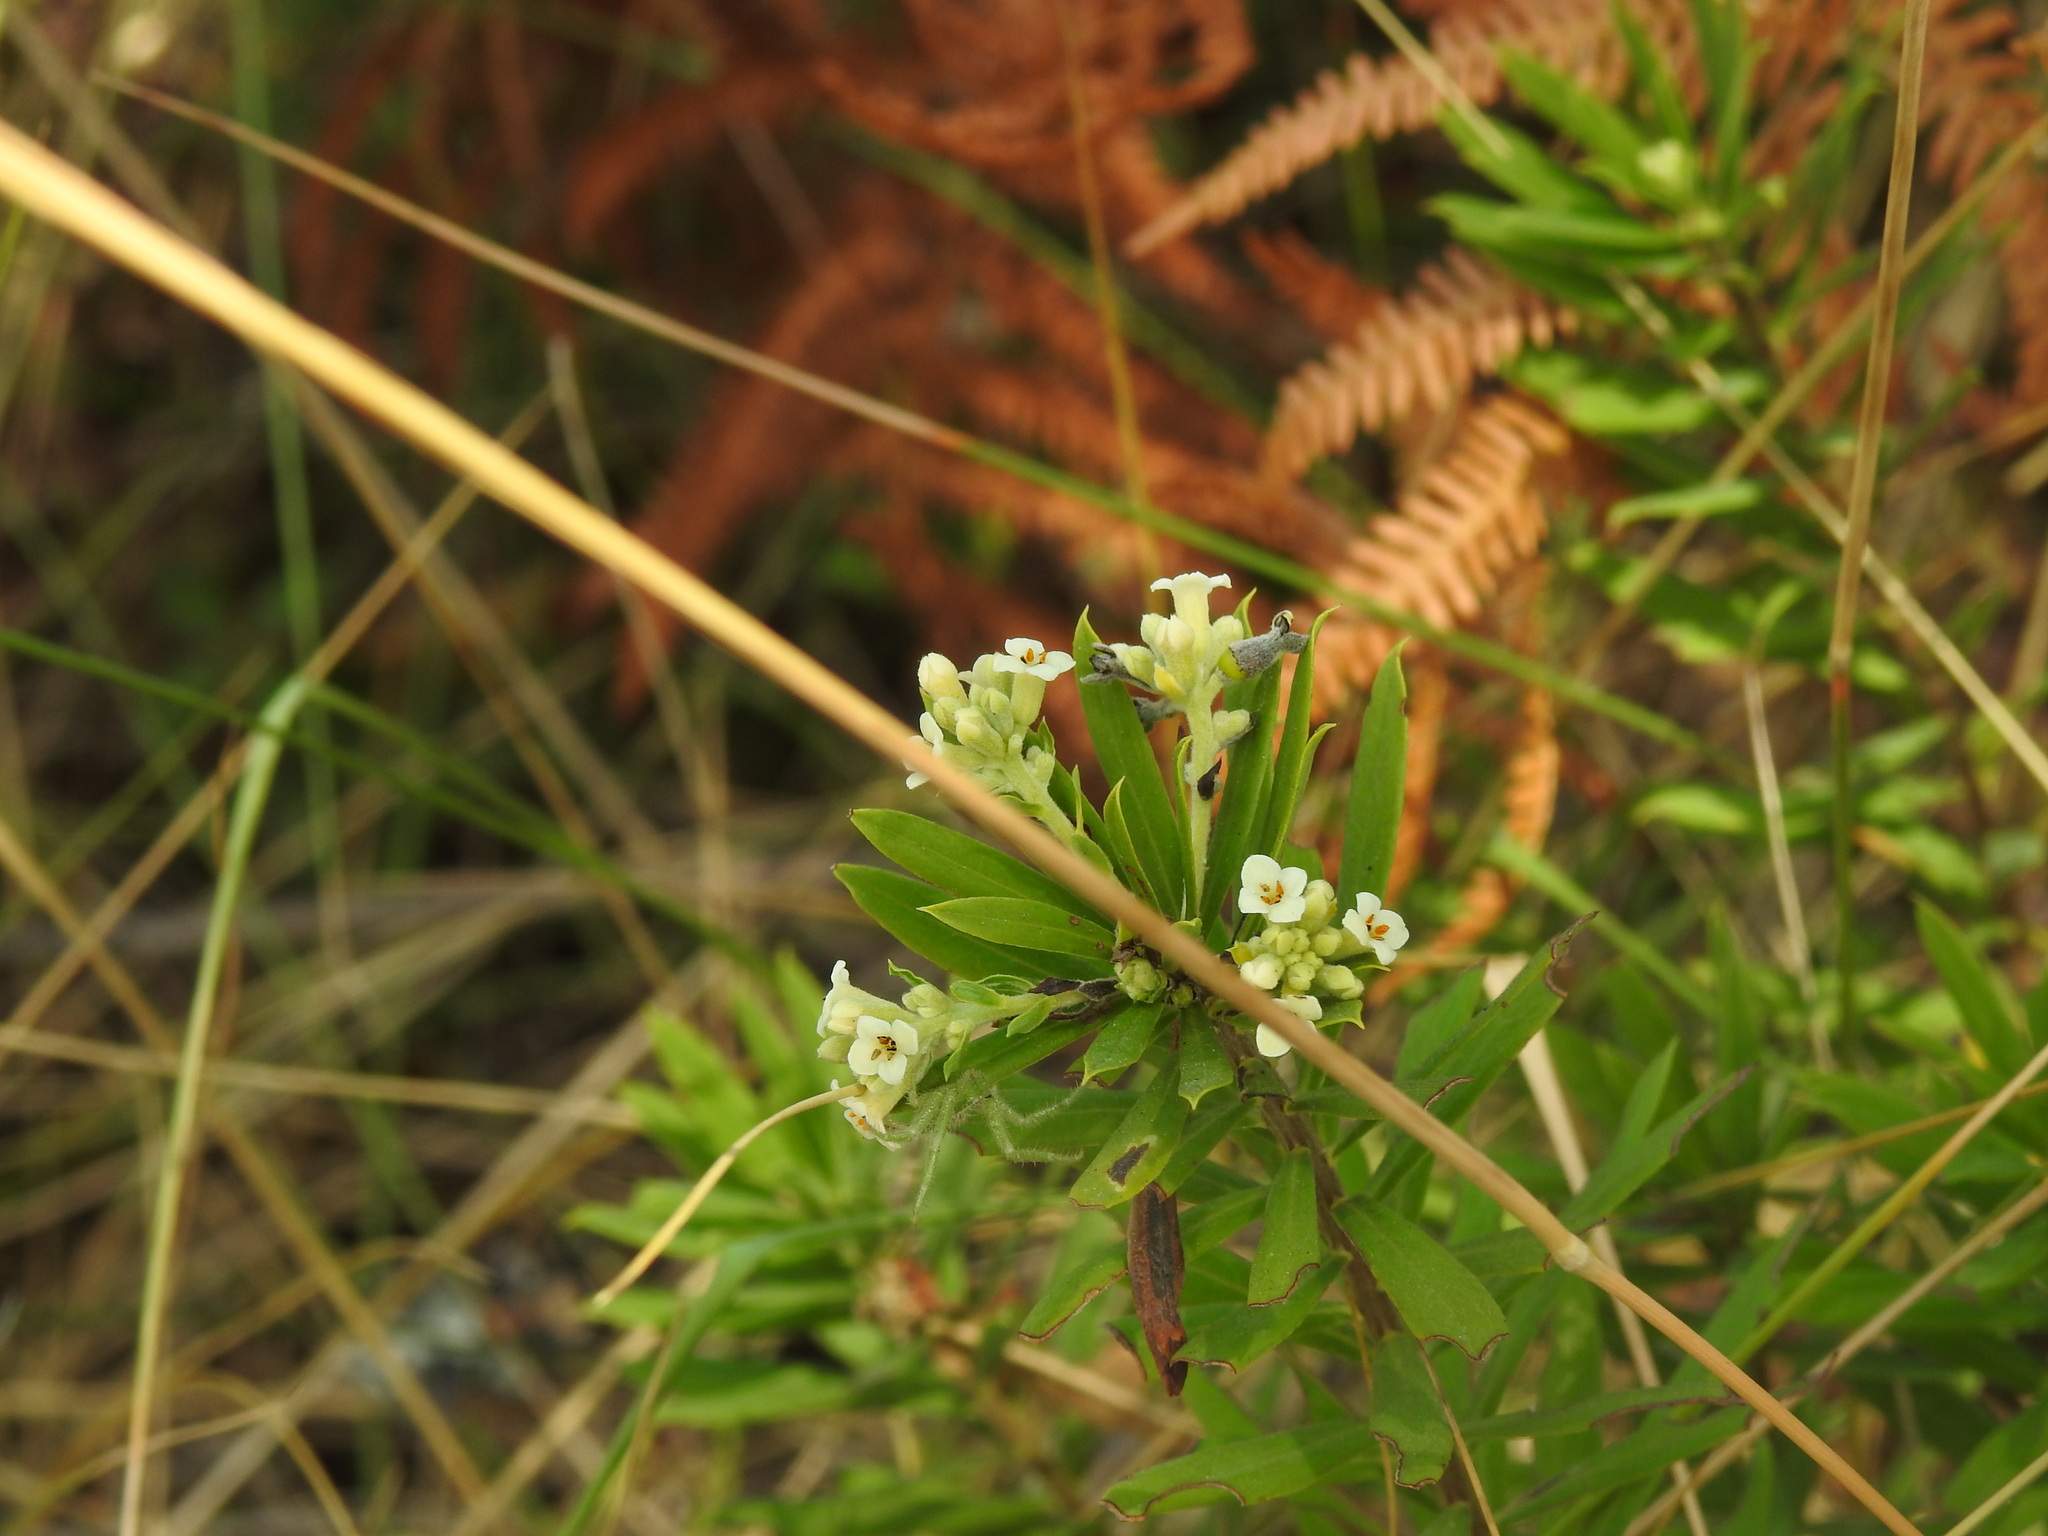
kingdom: Plantae
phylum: Tracheophyta
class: Magnoliopsida
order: Malvales
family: Thymelaeaceae
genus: Daphne
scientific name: Daphne gnidium
